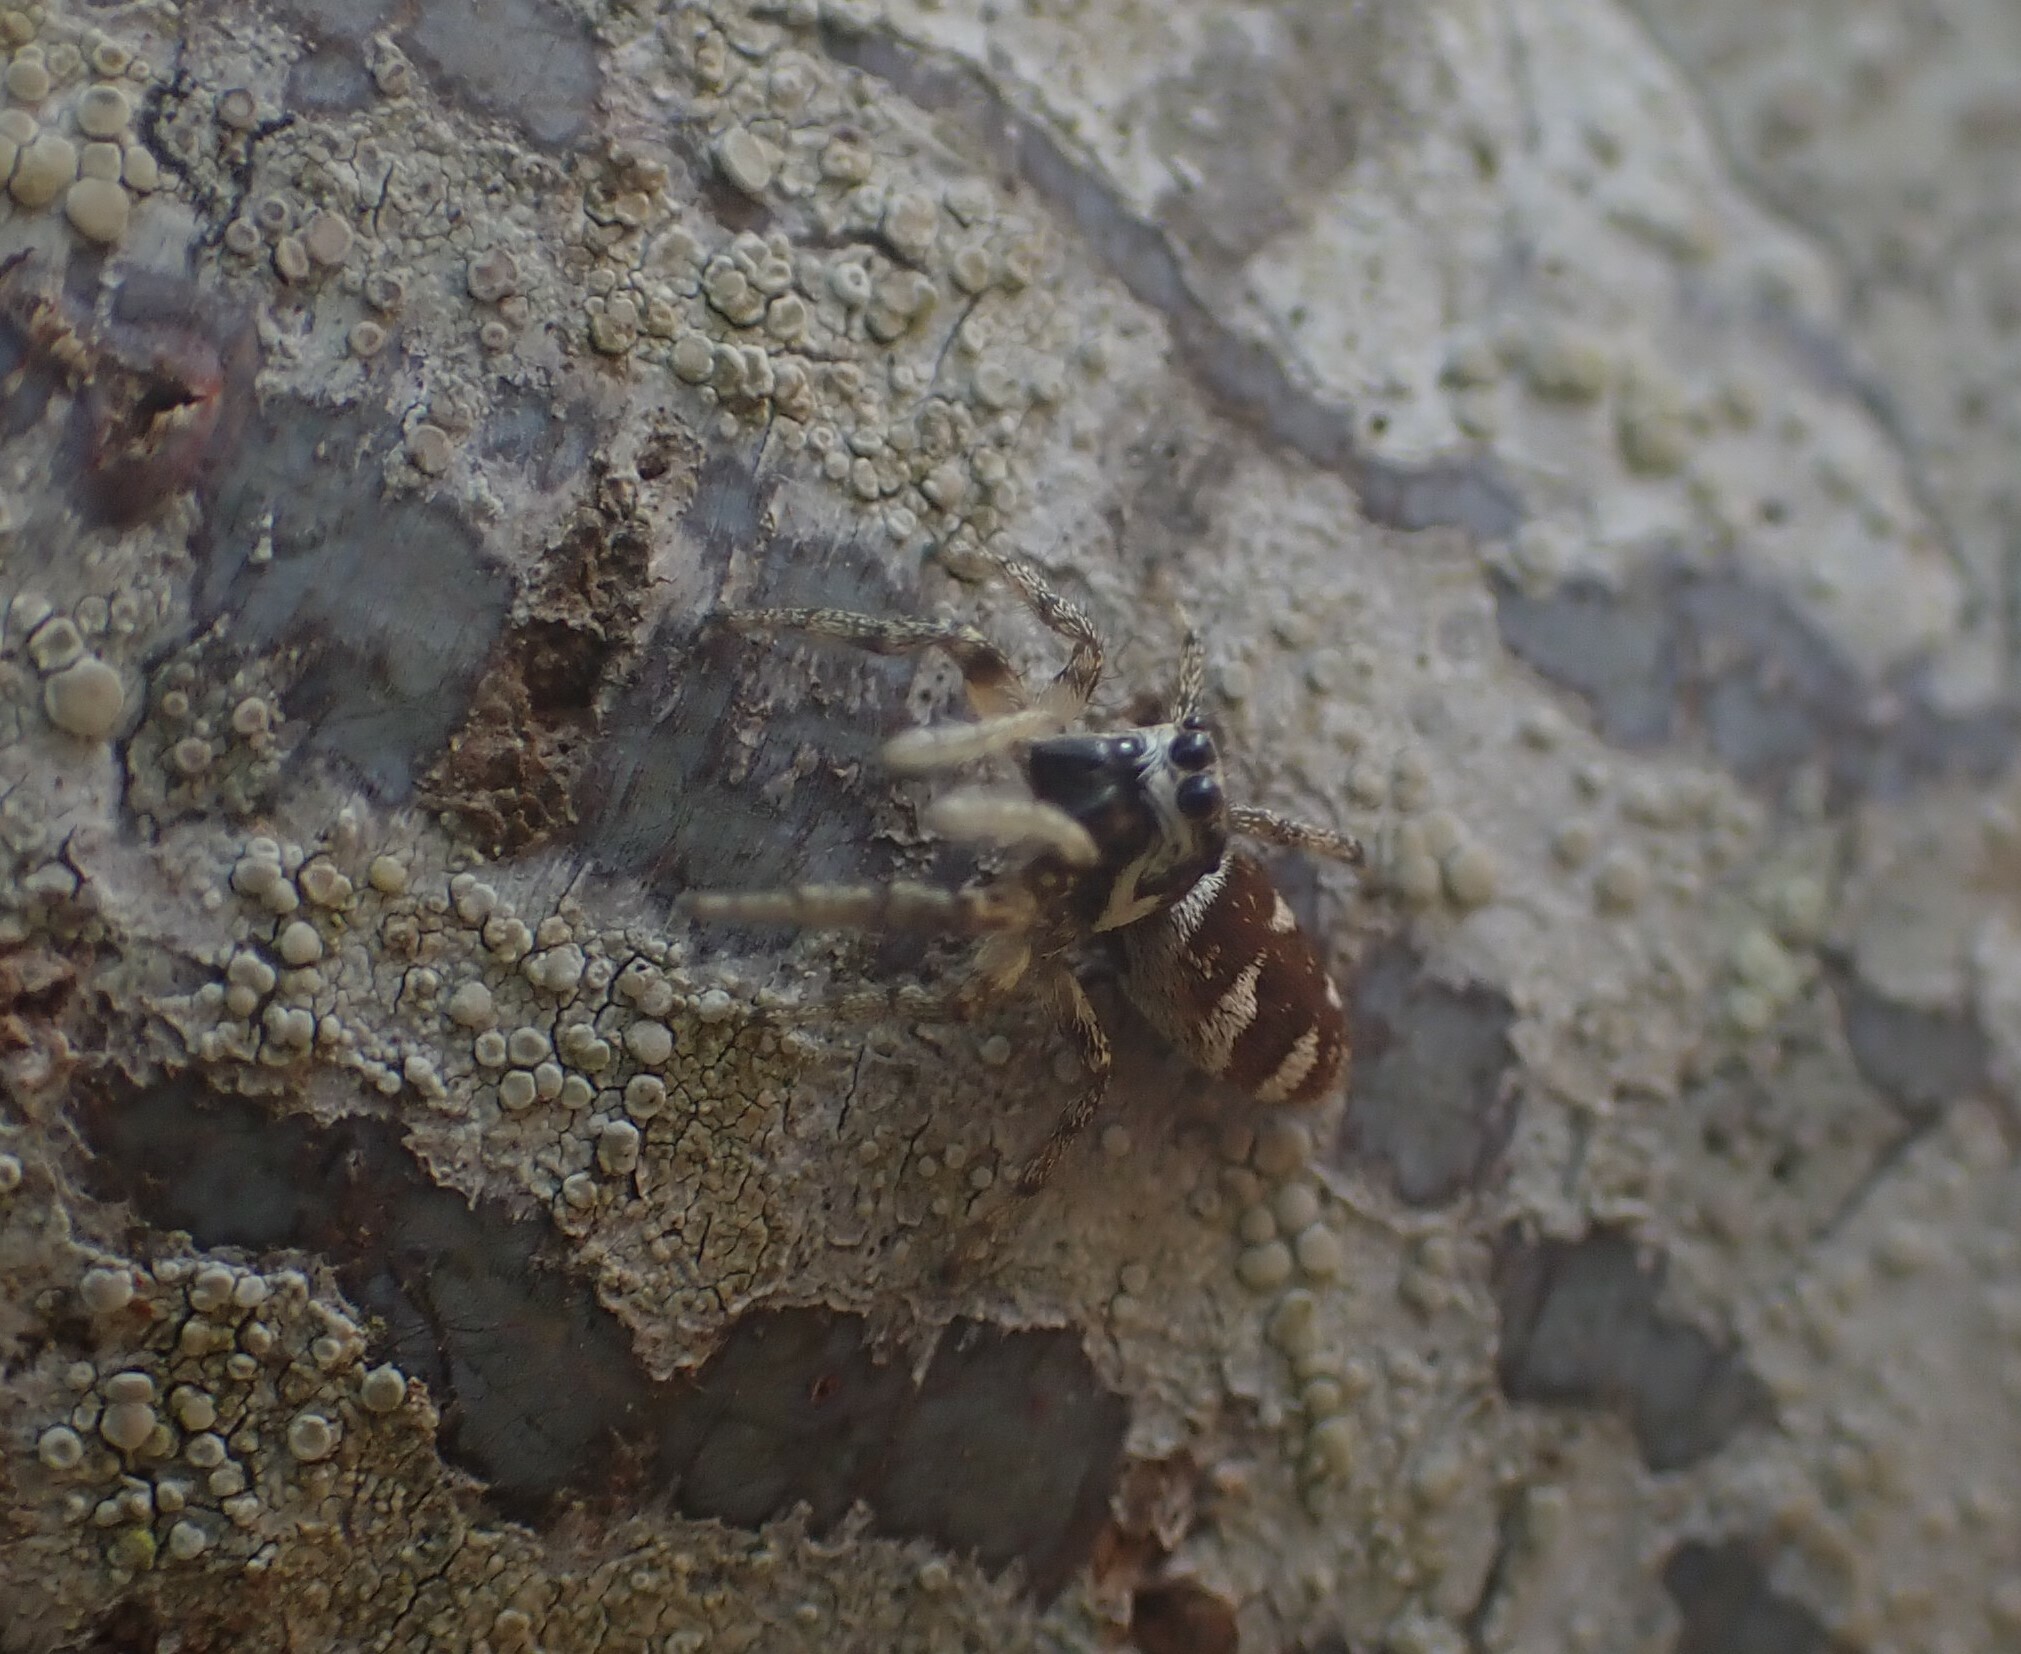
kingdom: Animalia
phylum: Arthropoda
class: Arachnida
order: Araneae
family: Salticidae
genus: Salticus
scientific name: Salticus scenicus
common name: Zebra jumper
